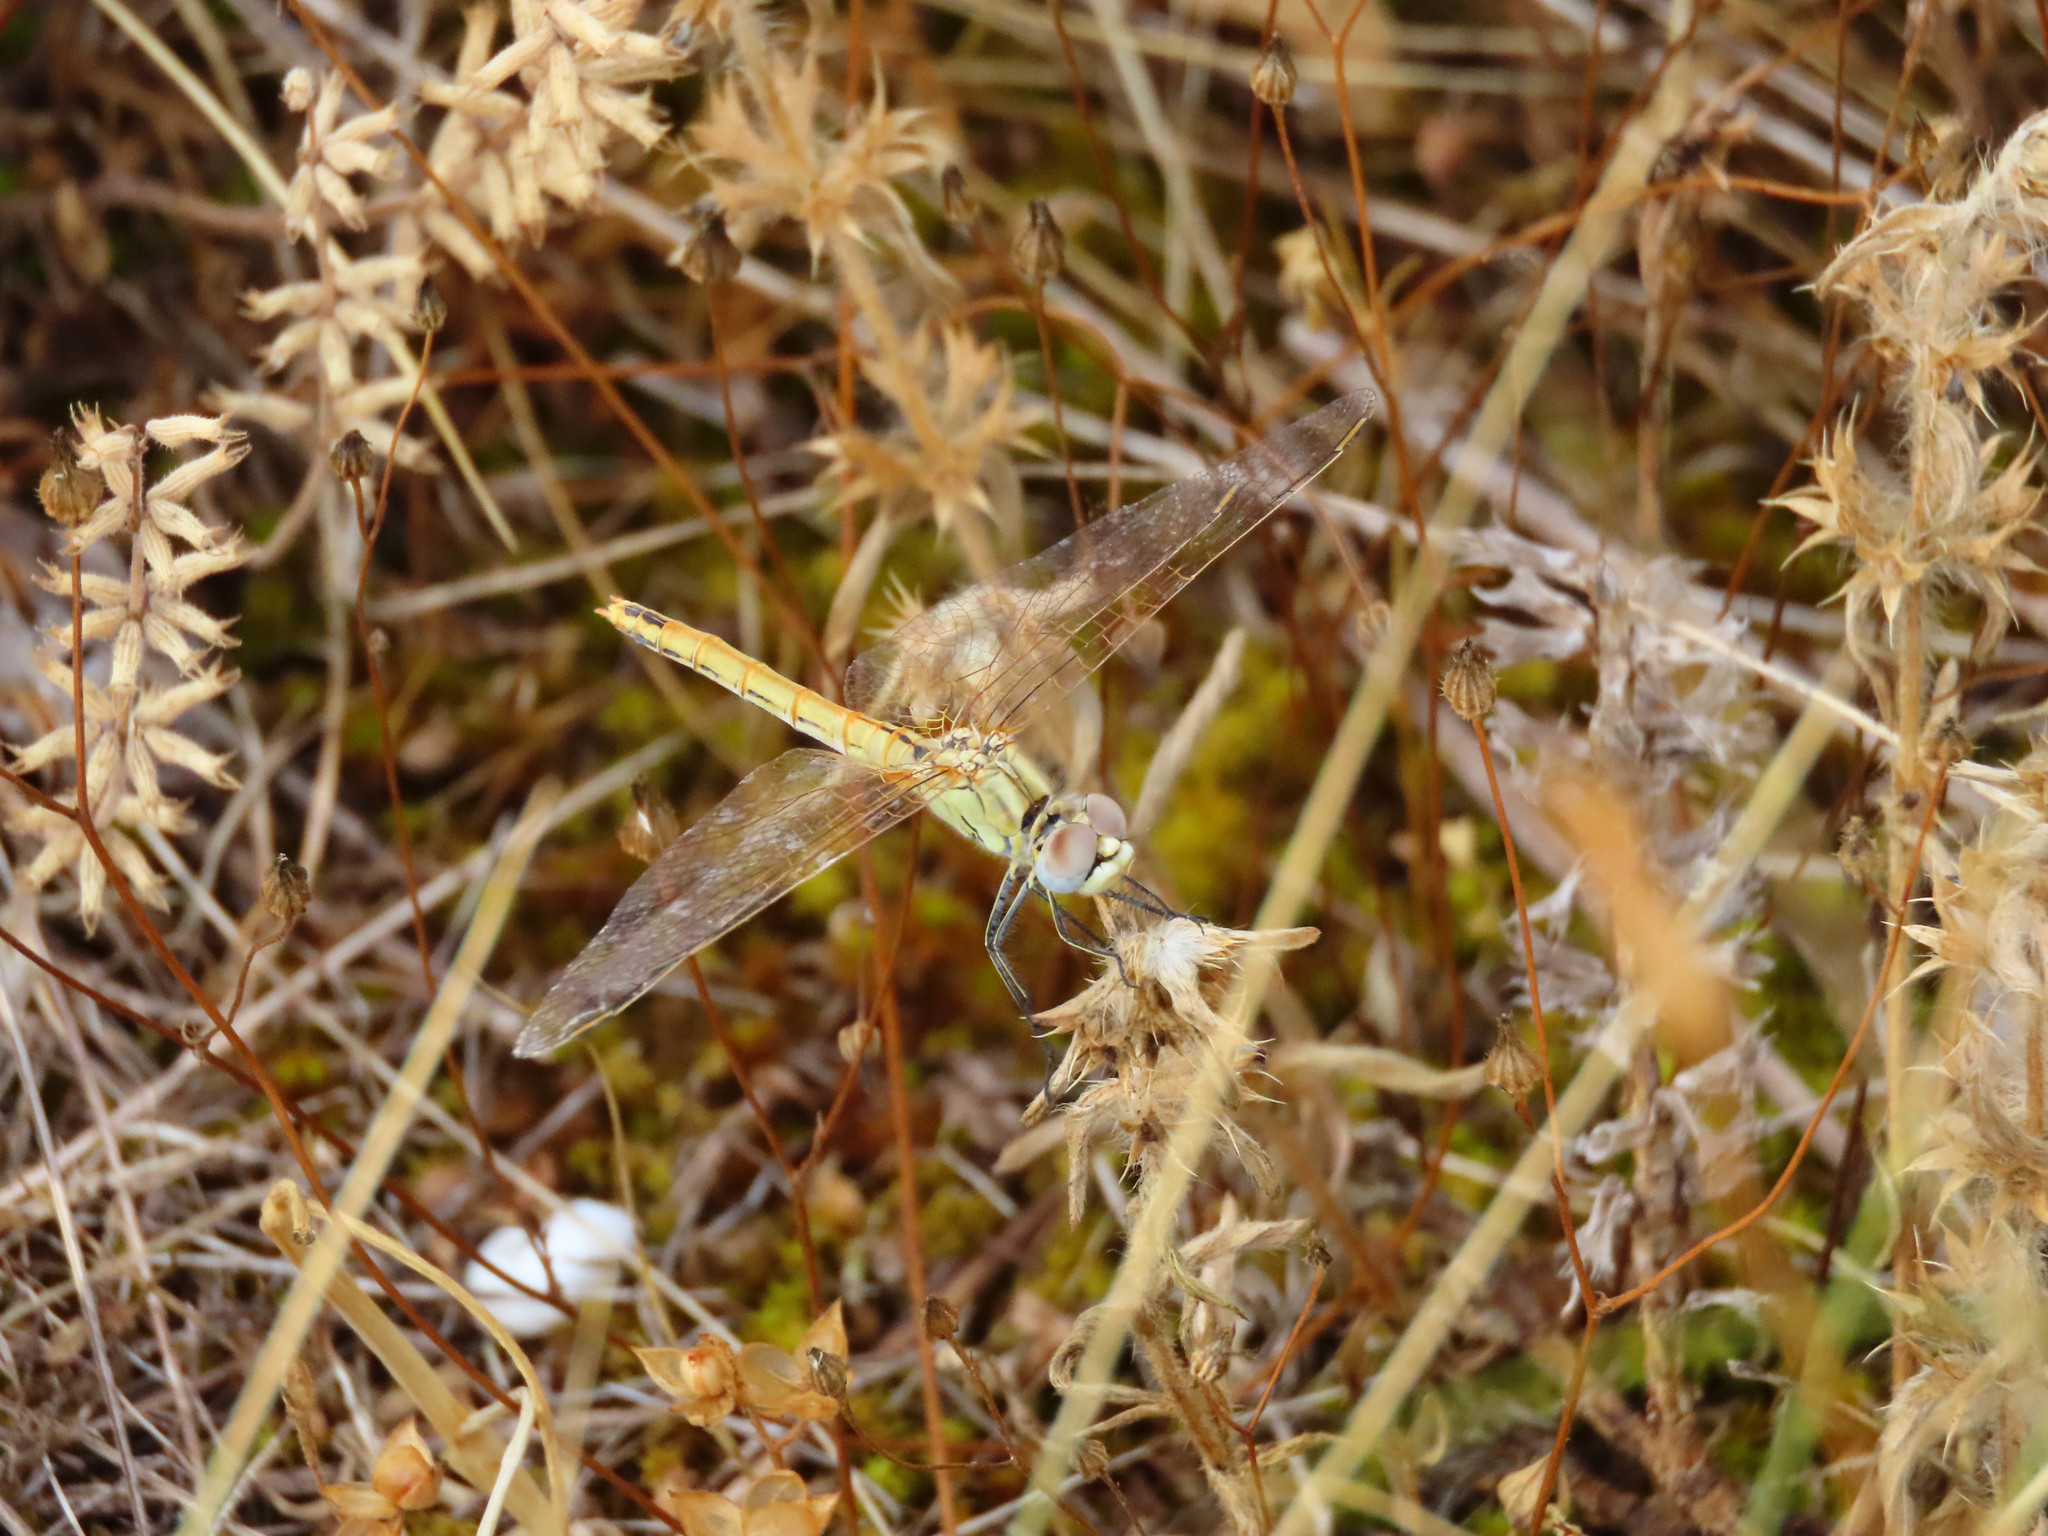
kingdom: Animalia
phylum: Arthropoda
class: Insecta
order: Odonata
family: Libellulidae
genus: Sympetrum
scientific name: Sympetrum fonscolombii
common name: Red-veined darter
